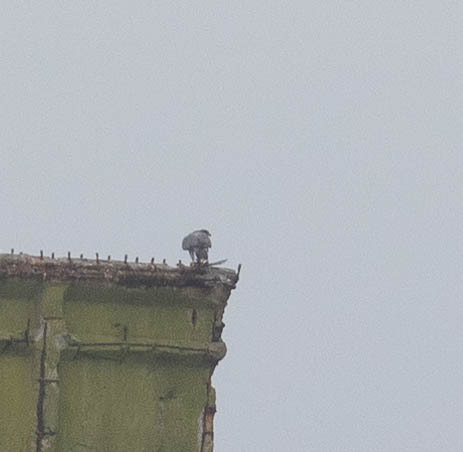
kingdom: Animalia
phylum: Chordata
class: Aves
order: Falconiformes
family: Falconidae
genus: Falco
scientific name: Falco peregrinus
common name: Peregrine falcon
